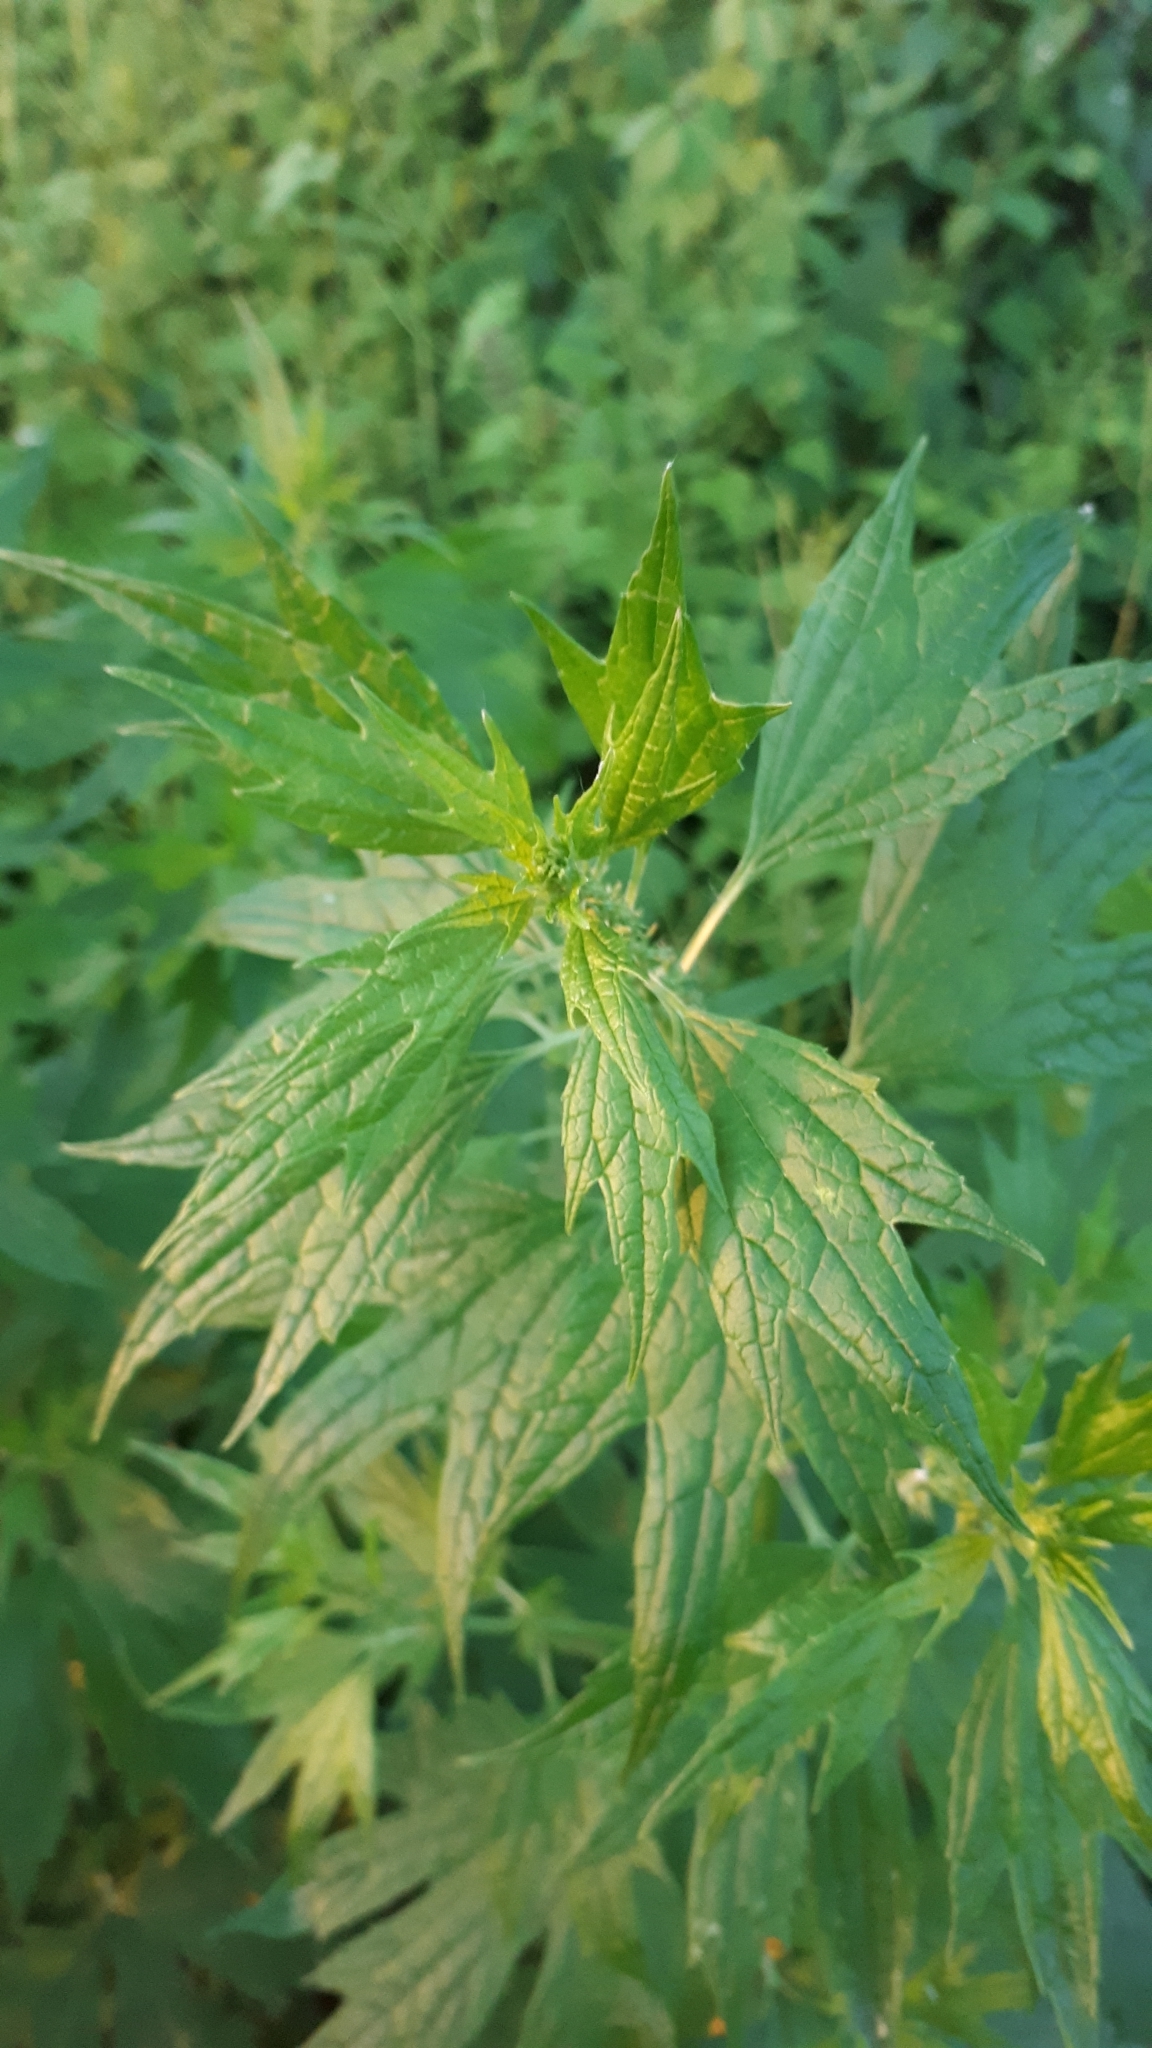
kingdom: Plantae
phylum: Tracheophyta
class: Magnoliopsida
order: Lamiales
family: Lamiaceae
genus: Leonurus
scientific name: Leonurus cardiaca
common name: Motherwort
